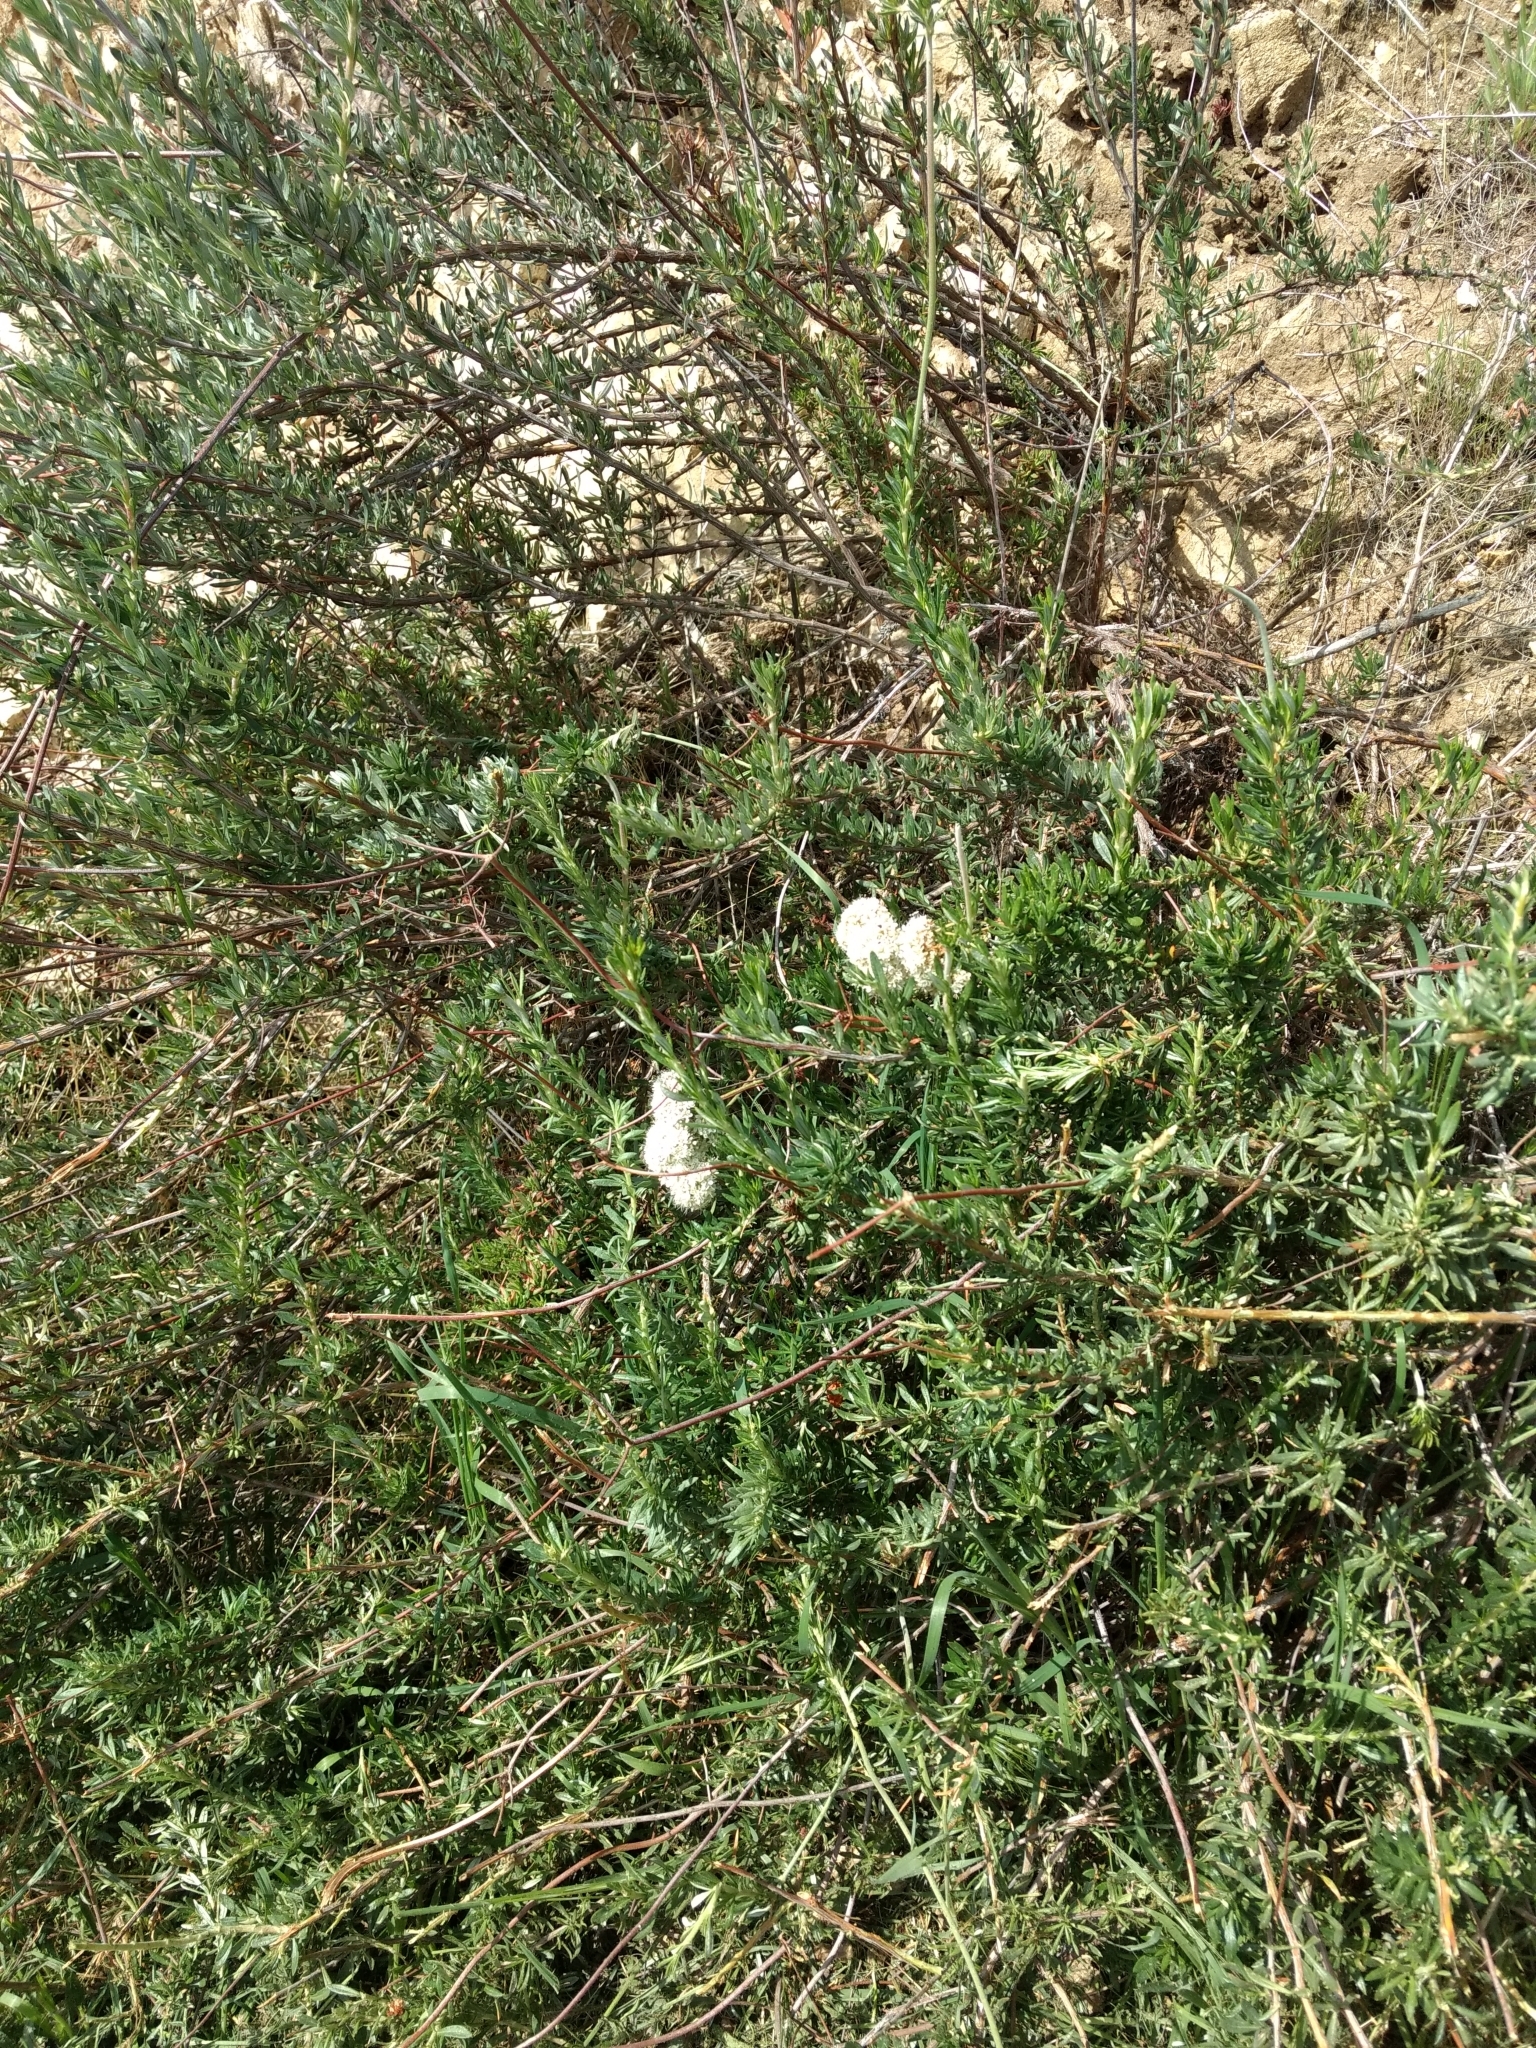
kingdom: Plantae
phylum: Tracheophyta
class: Magnoliopsida
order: Caryophyllales
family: Polygonaceae
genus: Eriogonum
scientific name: Eriogonum fasciculatum
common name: California wild buckwheat
